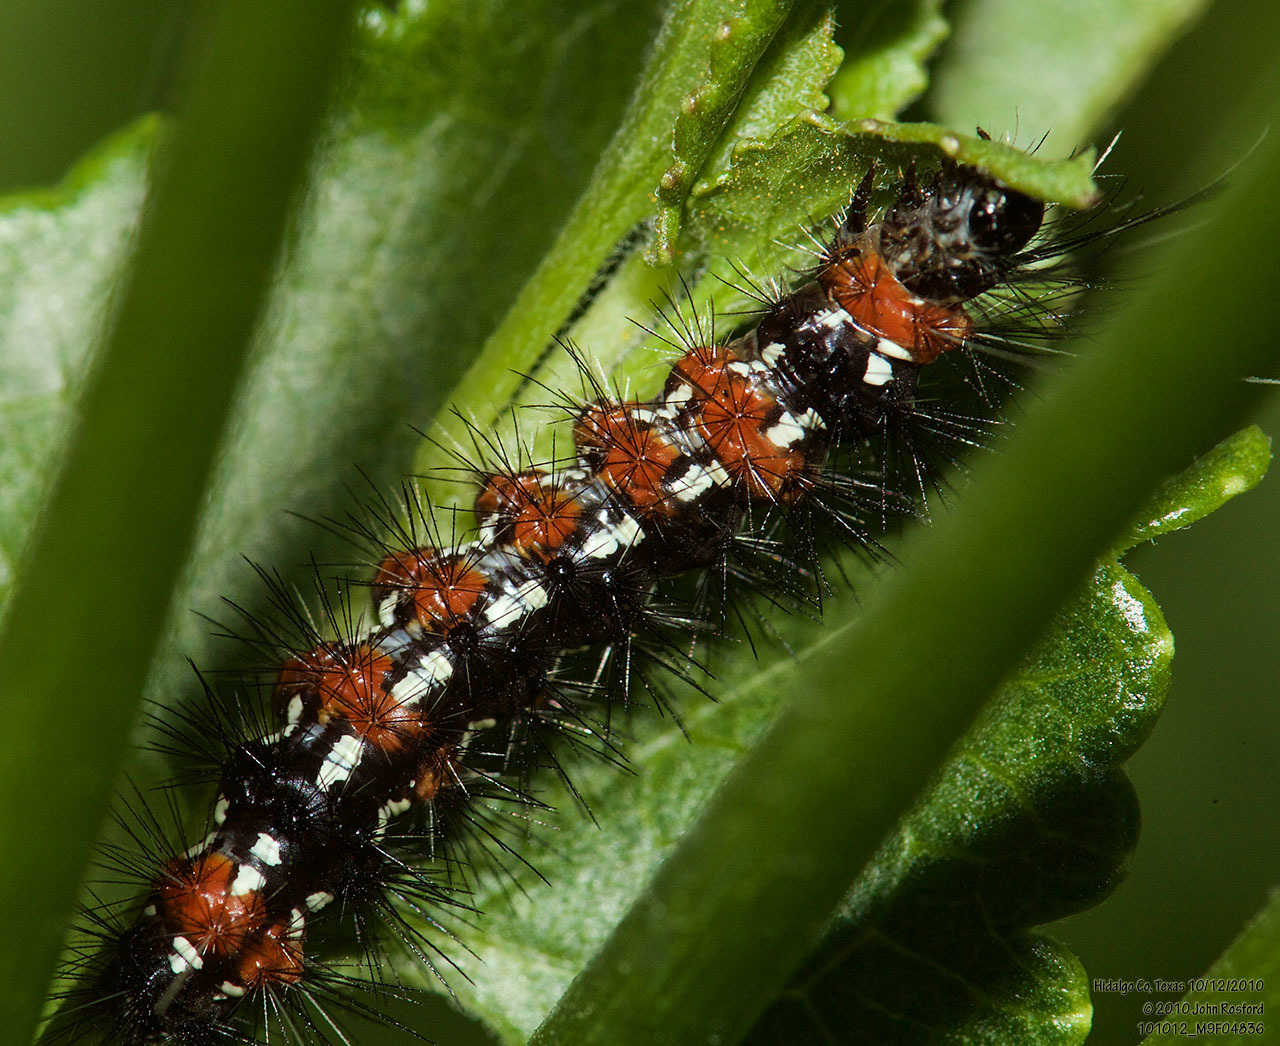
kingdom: Animalia
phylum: Arthropoda
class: Insecta
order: Lepidoptera
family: Erebidae
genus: Pareuchaetes
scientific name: Pareuchaetes insulata
